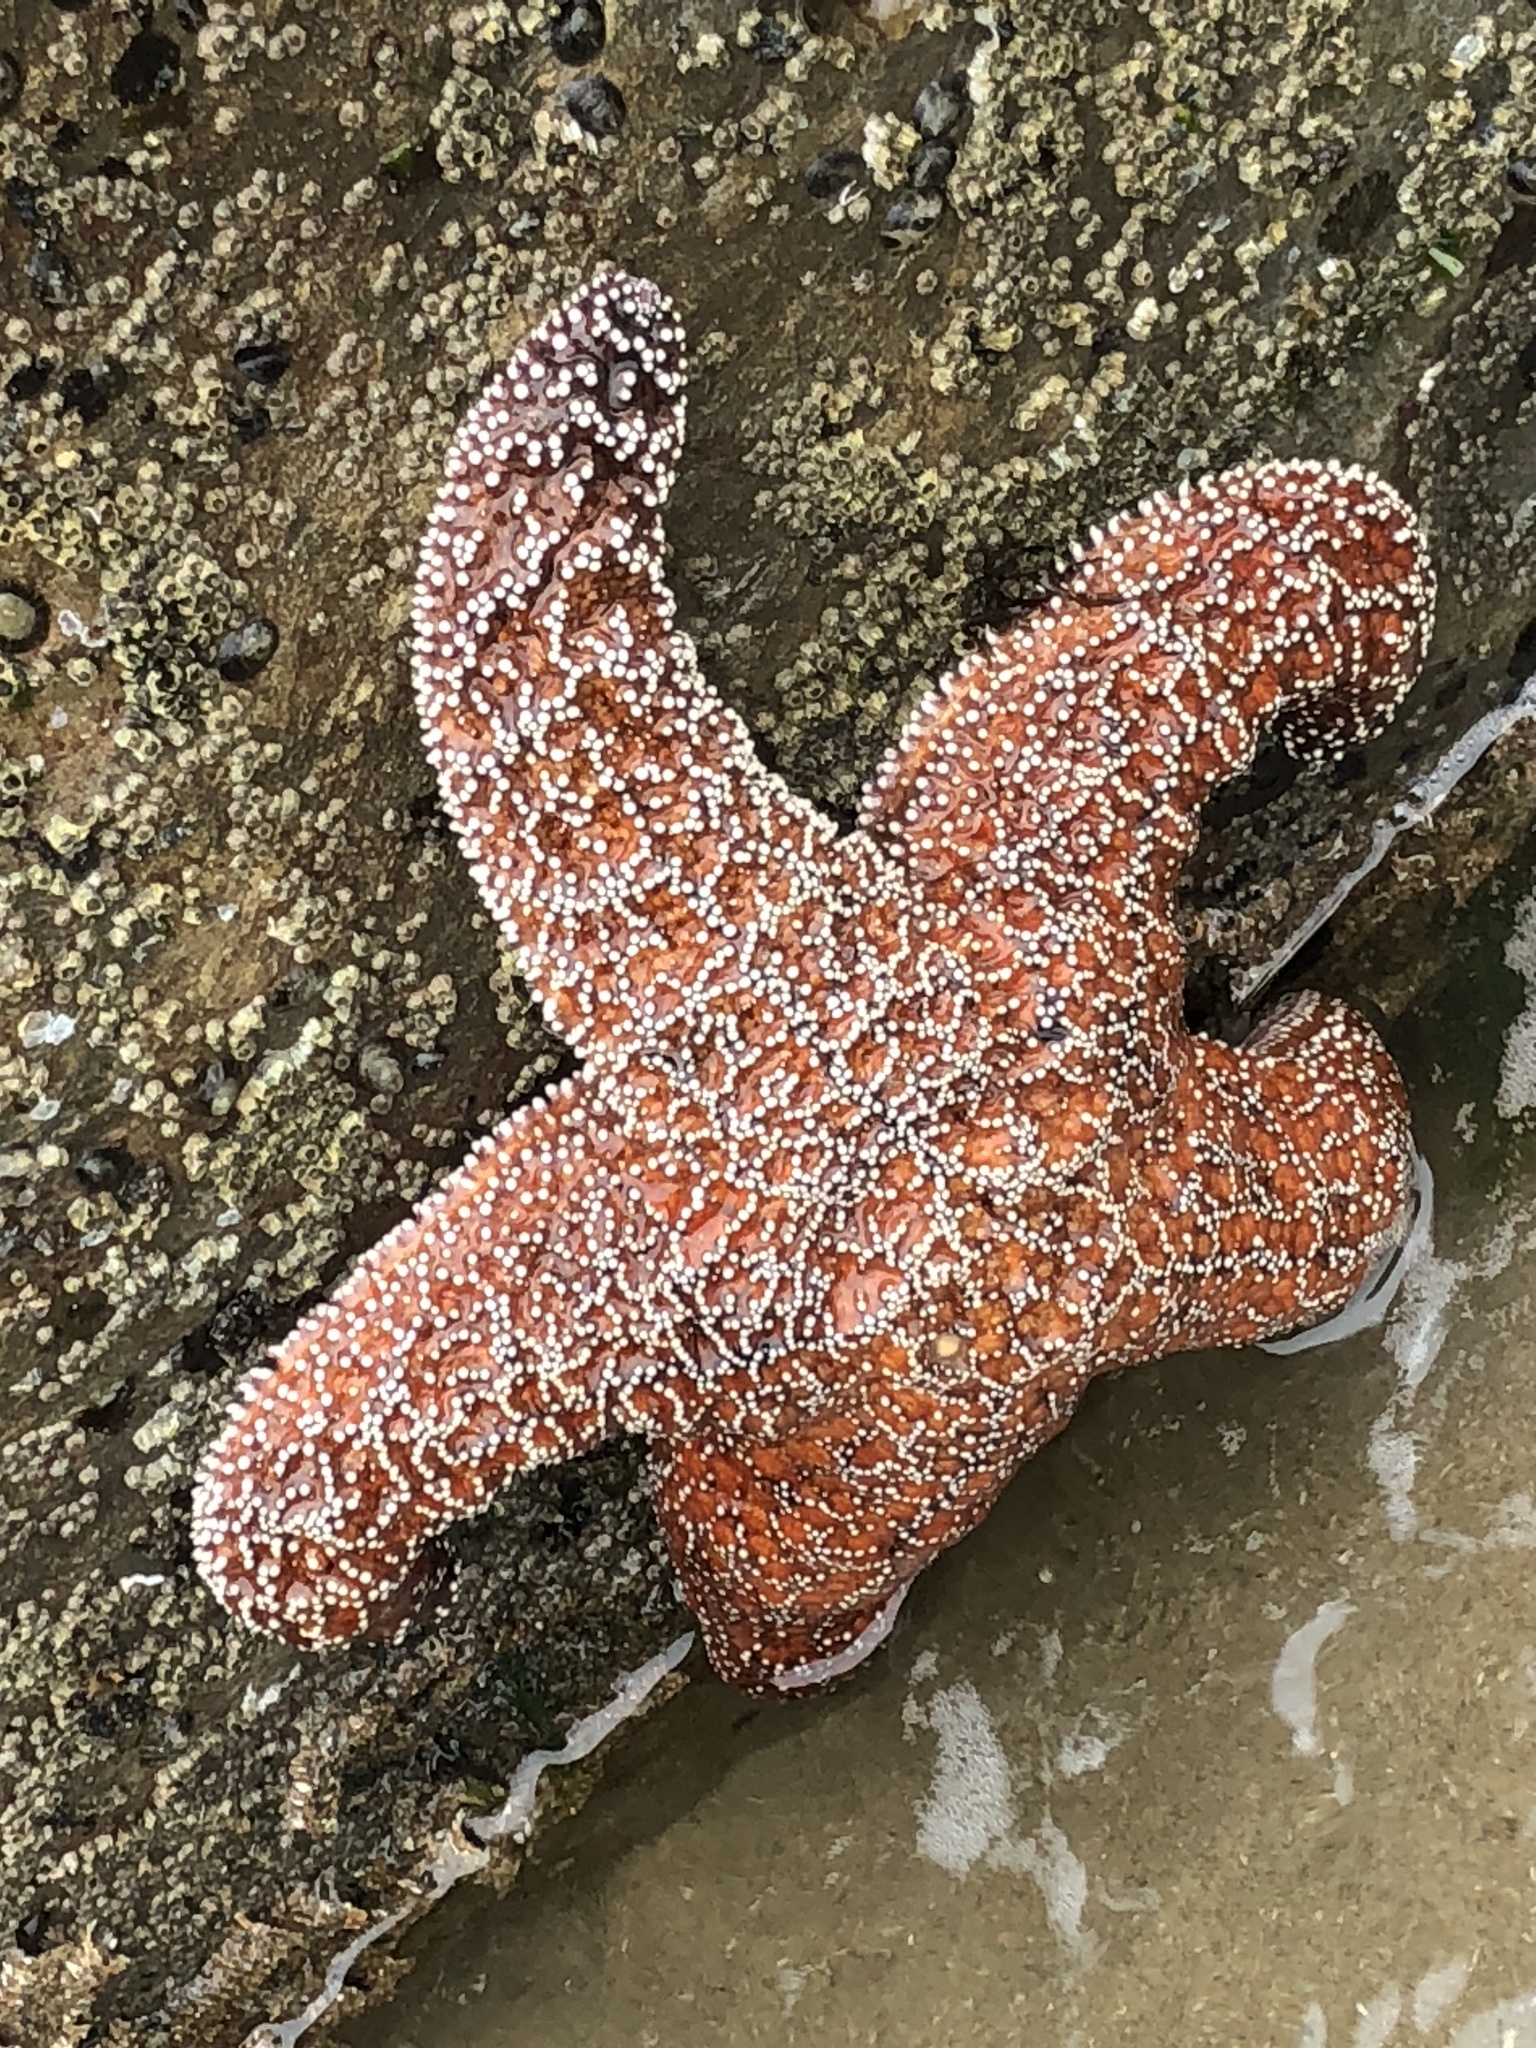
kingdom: Animalia
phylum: Echinodermata
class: Asteroidea
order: Forcipulatida
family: Asteriidae
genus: Pisaster
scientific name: Pisaster ochraceus
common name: Ochre stars
